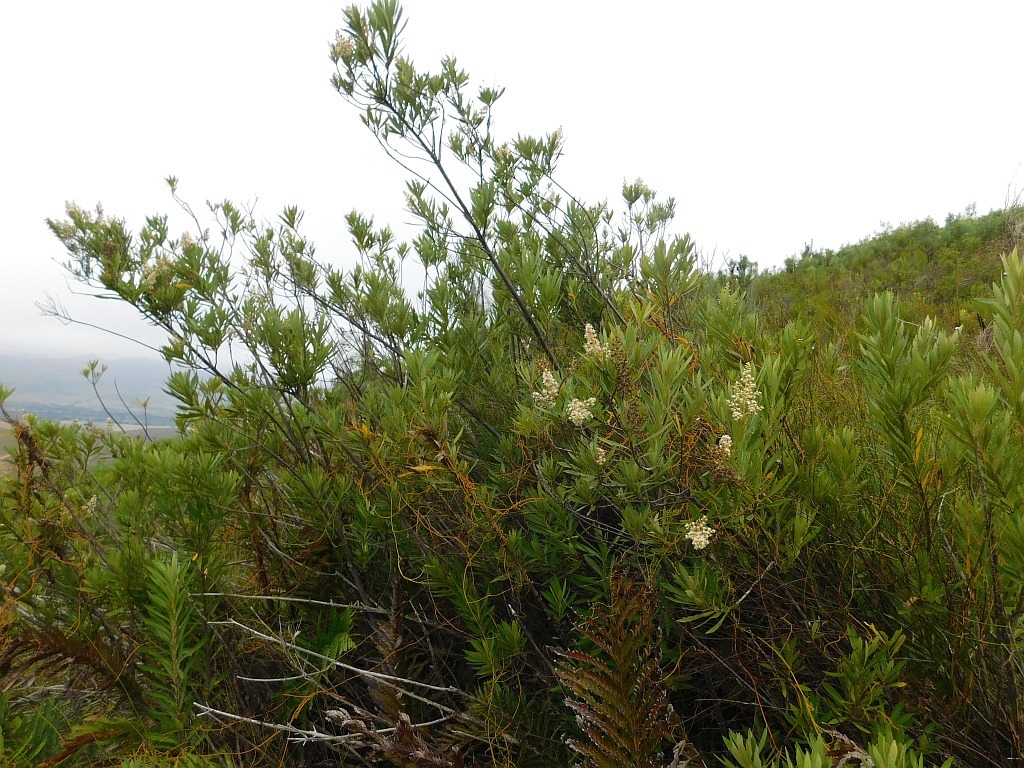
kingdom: Plantae
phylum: Tracheophyta
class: Magnoliopsida
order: Asterales
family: Asteraceae
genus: Brachylaena
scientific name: Brachylaena neriifolia
